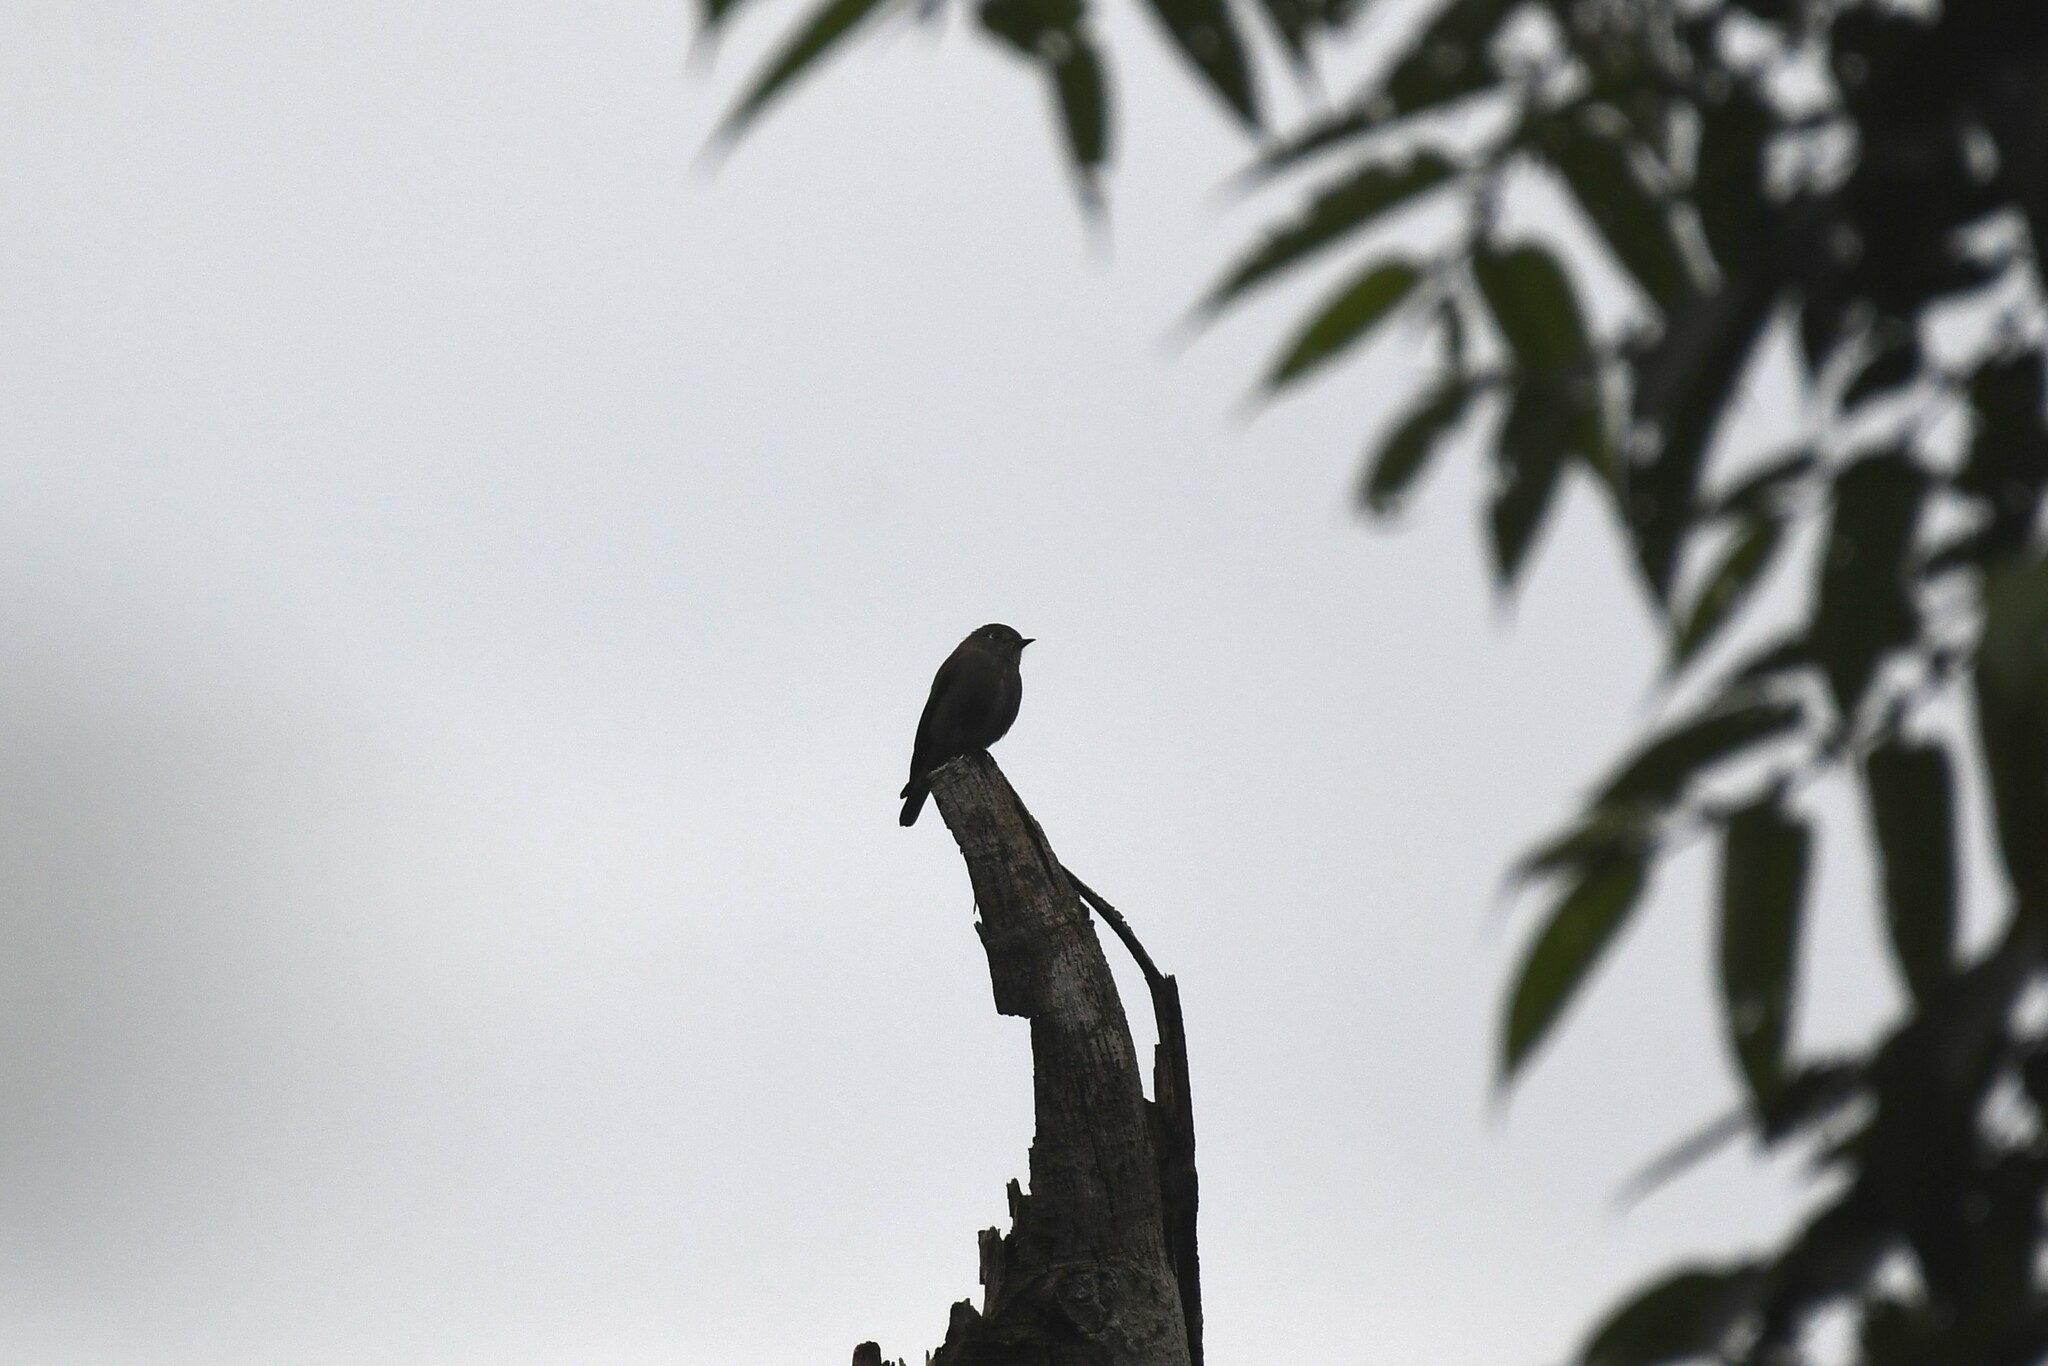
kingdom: Animalia
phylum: Chordata
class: Aves
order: Passeriformes
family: Muscicapidae
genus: Muscicapa
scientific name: Muscicapa sibirica
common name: Dark-sided flycatcher
